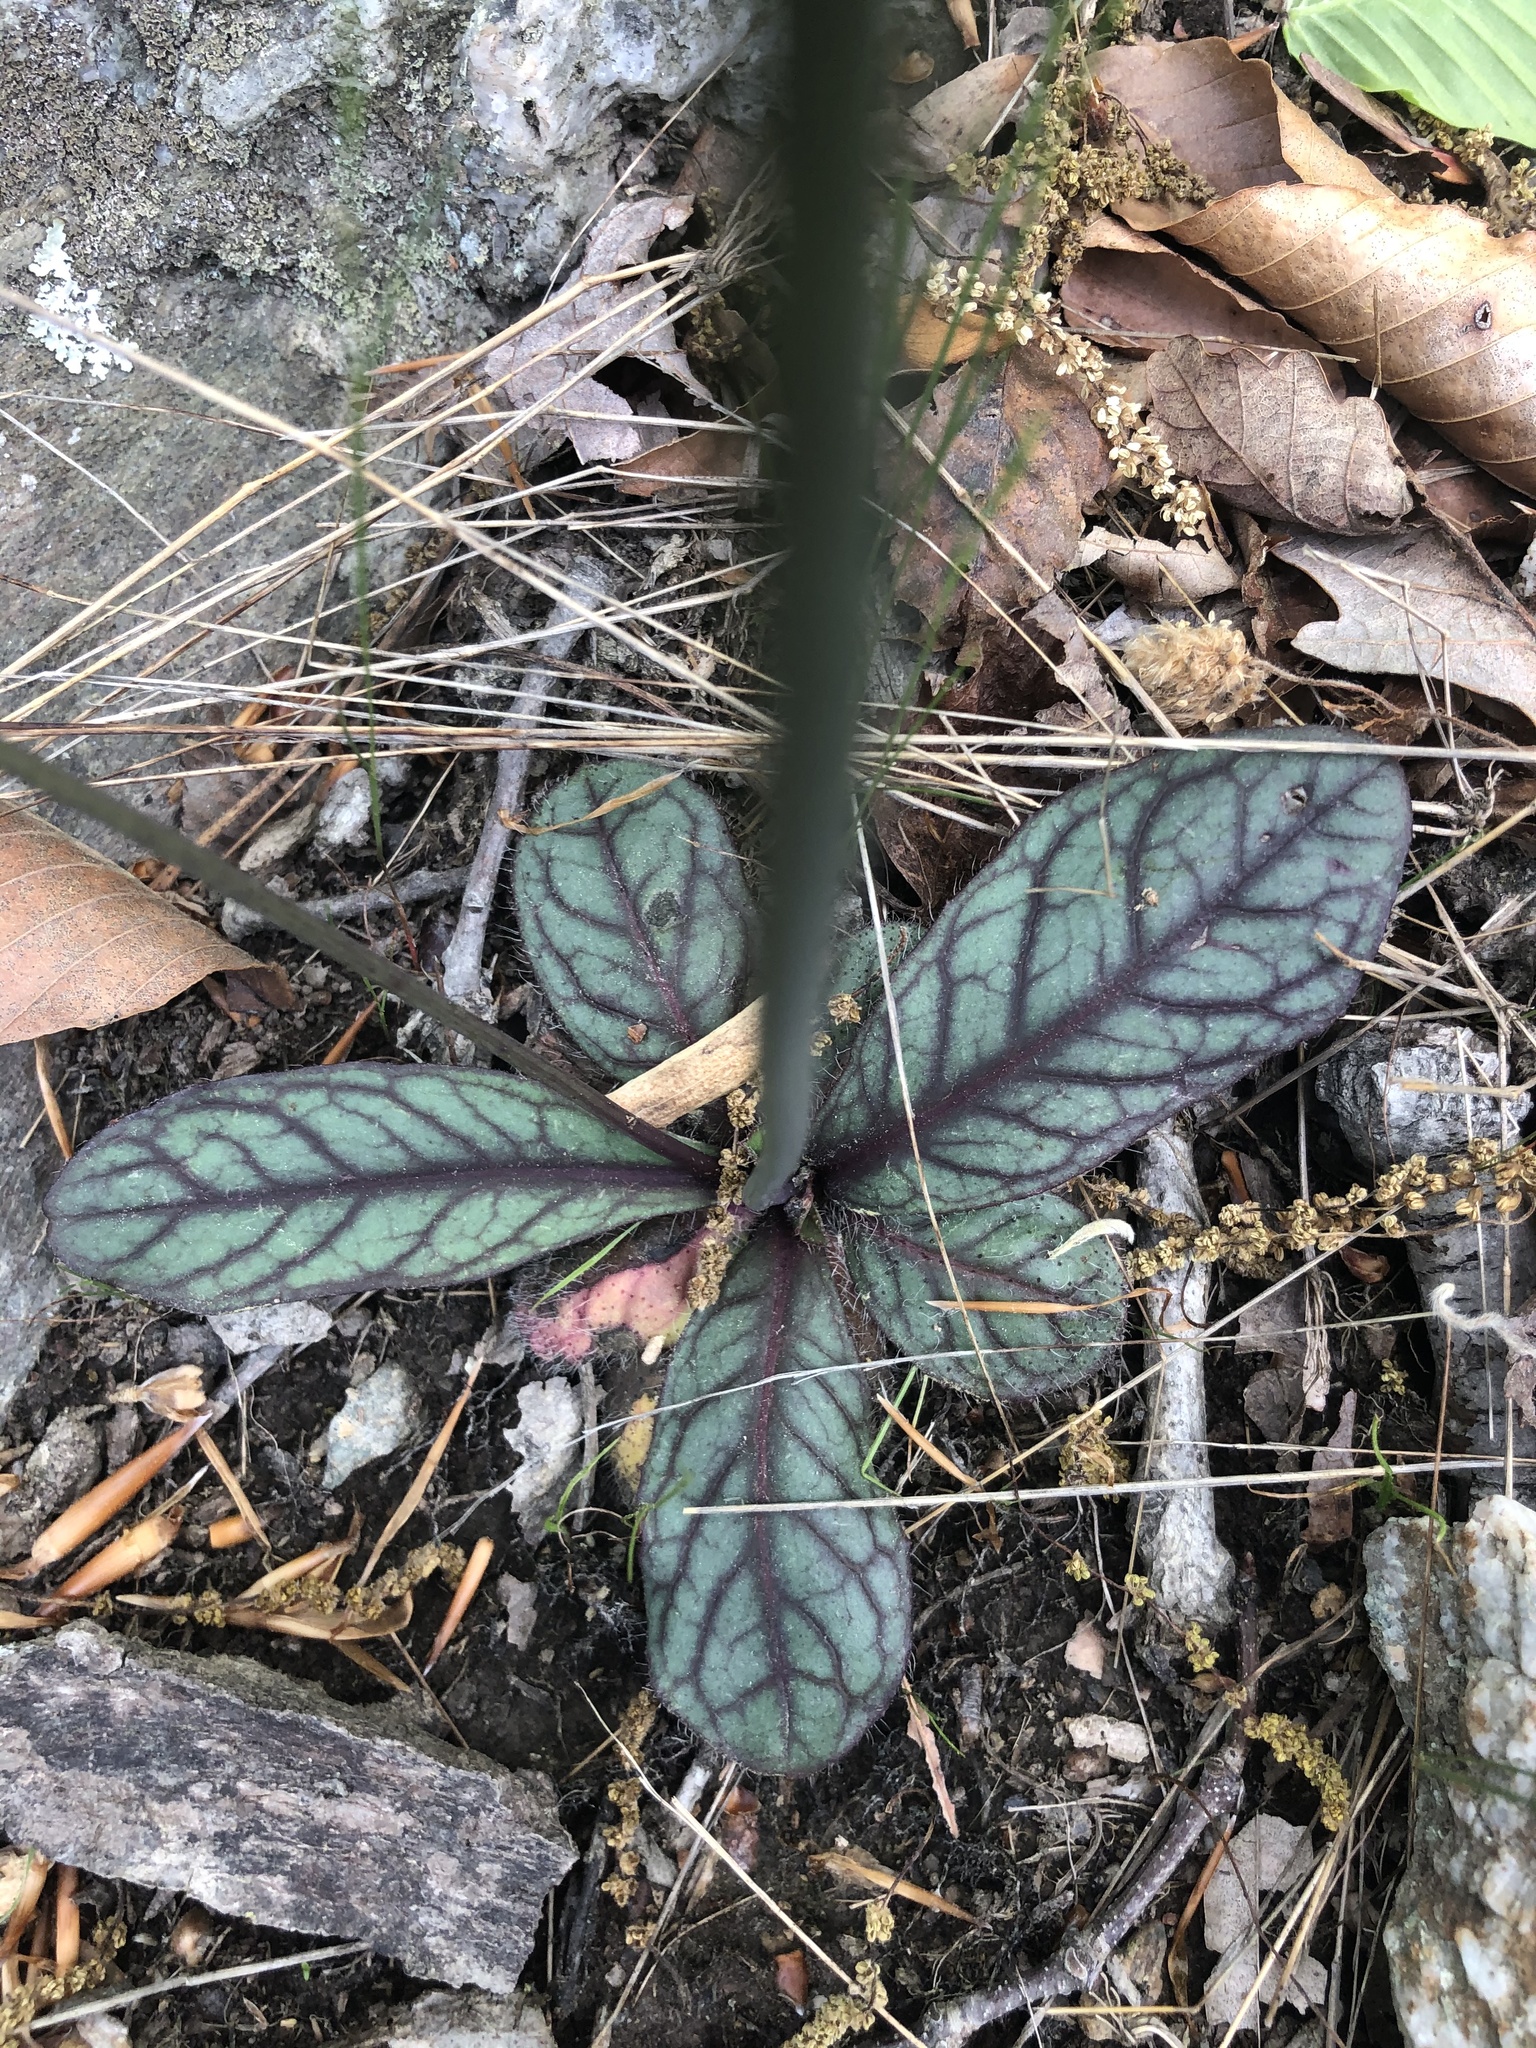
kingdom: Plantae
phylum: Tracheophyta
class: Magnoliopsida
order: Asterales
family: Asteraceae
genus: Hieracium
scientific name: Hieracium venosum
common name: Rattlesnake hawkweed
